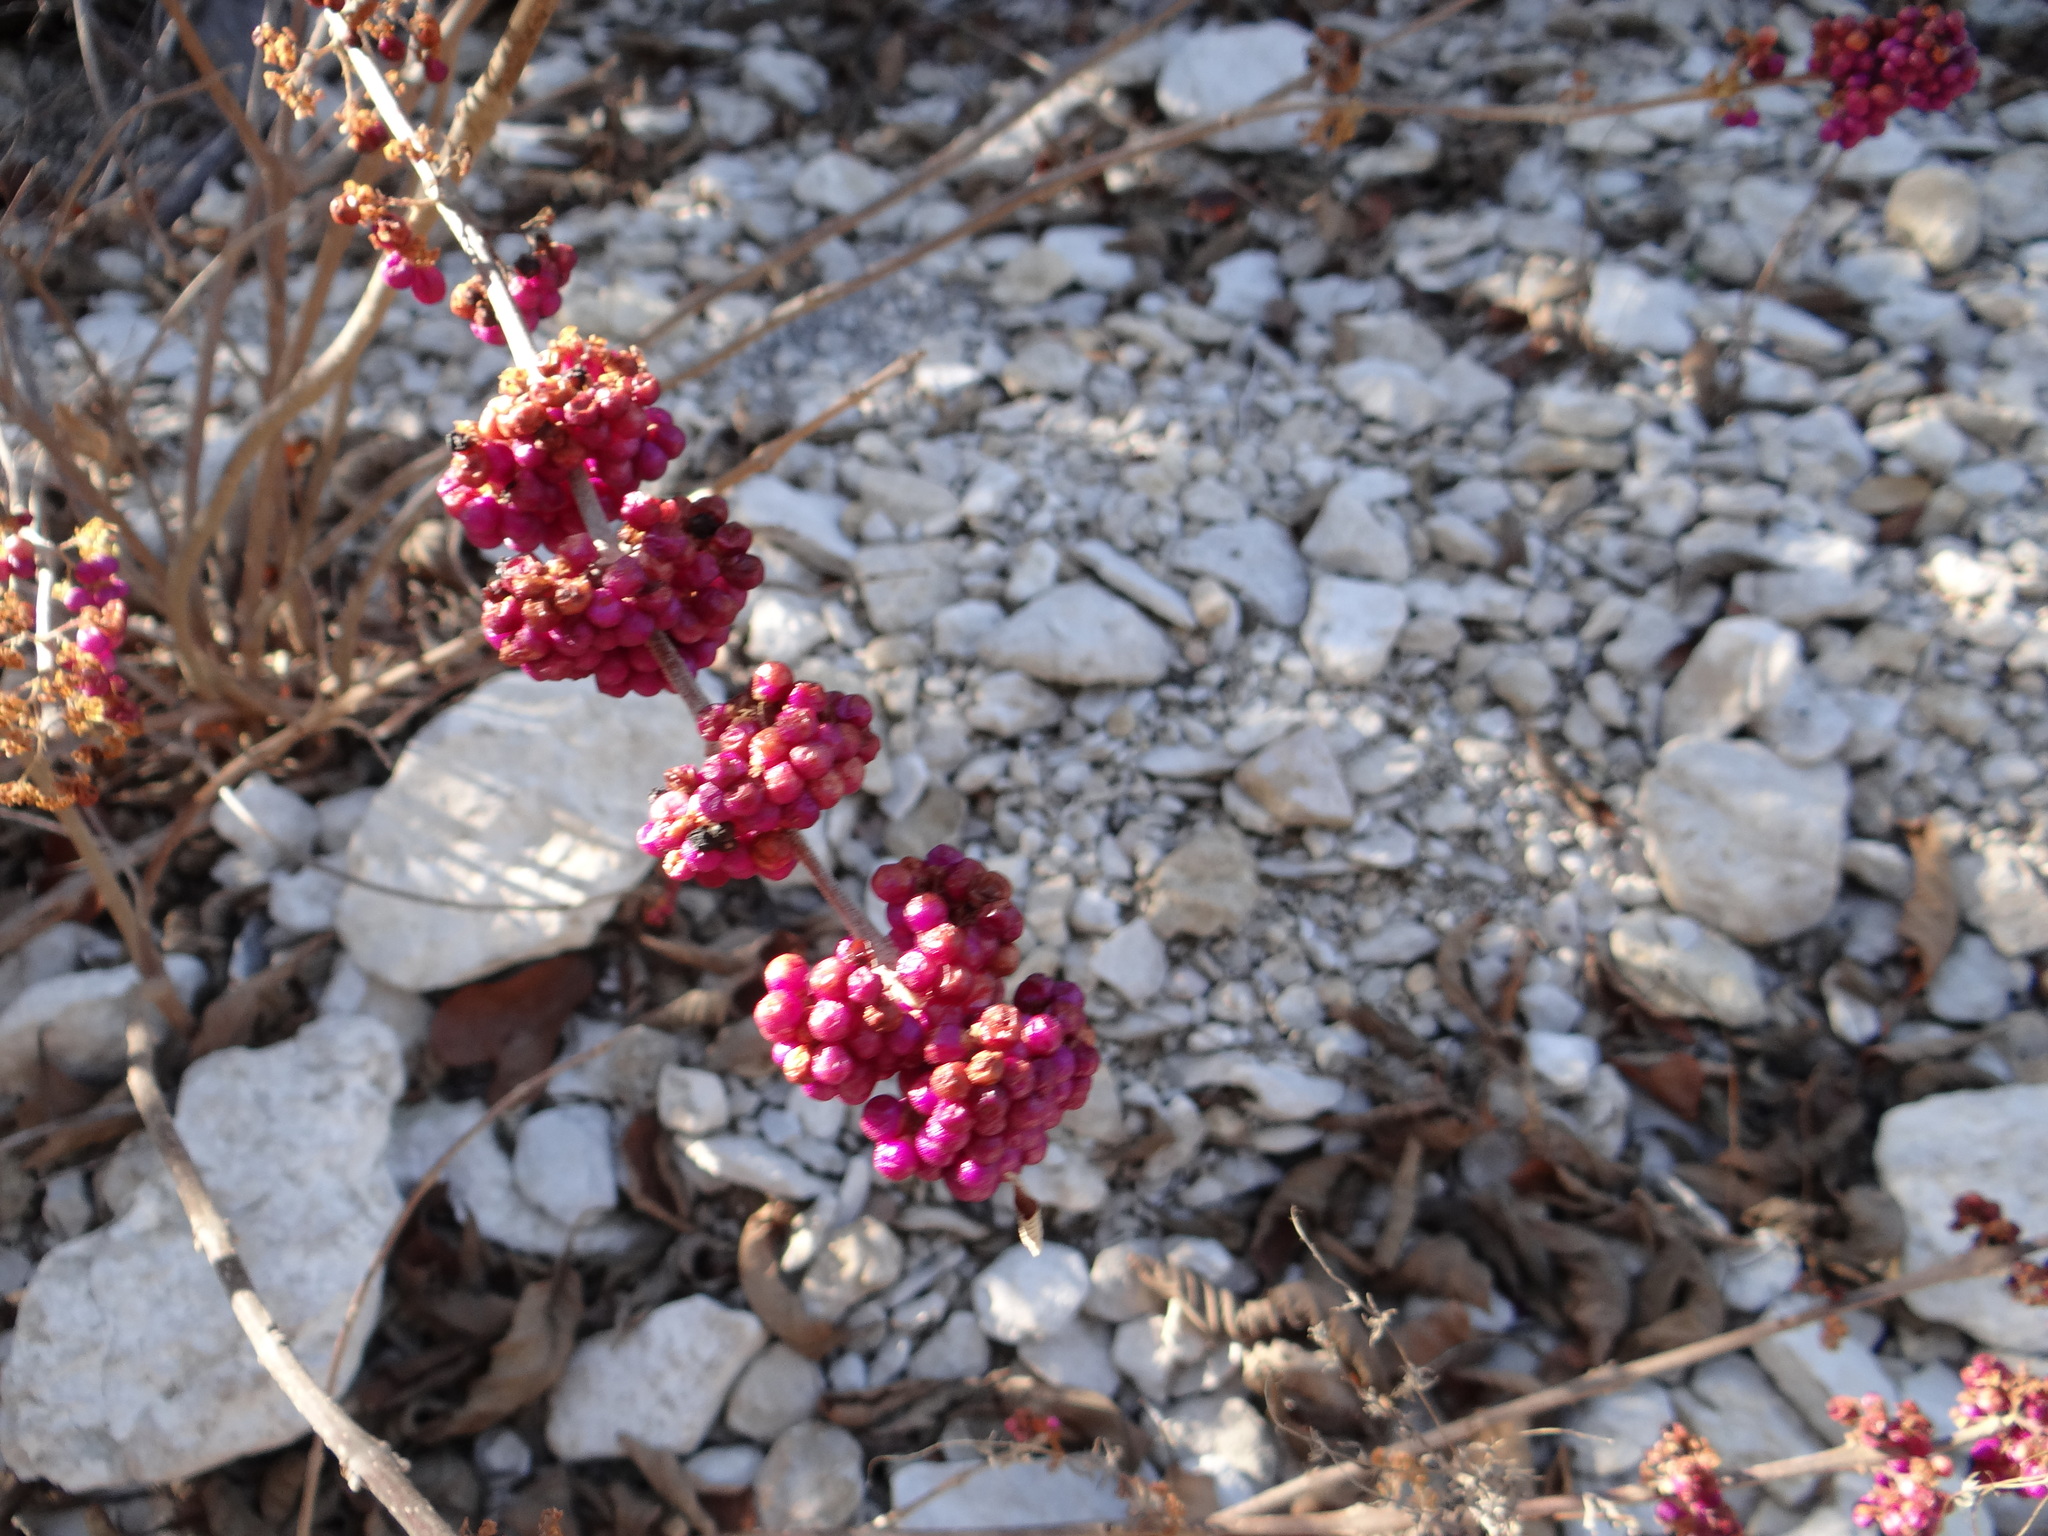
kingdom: Plantae
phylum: Tracheophyta
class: Magnoliopsida
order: Lamiales
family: Lamiaceae
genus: Callicarpa
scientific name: Callicarpa americana
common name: American beautyberry
